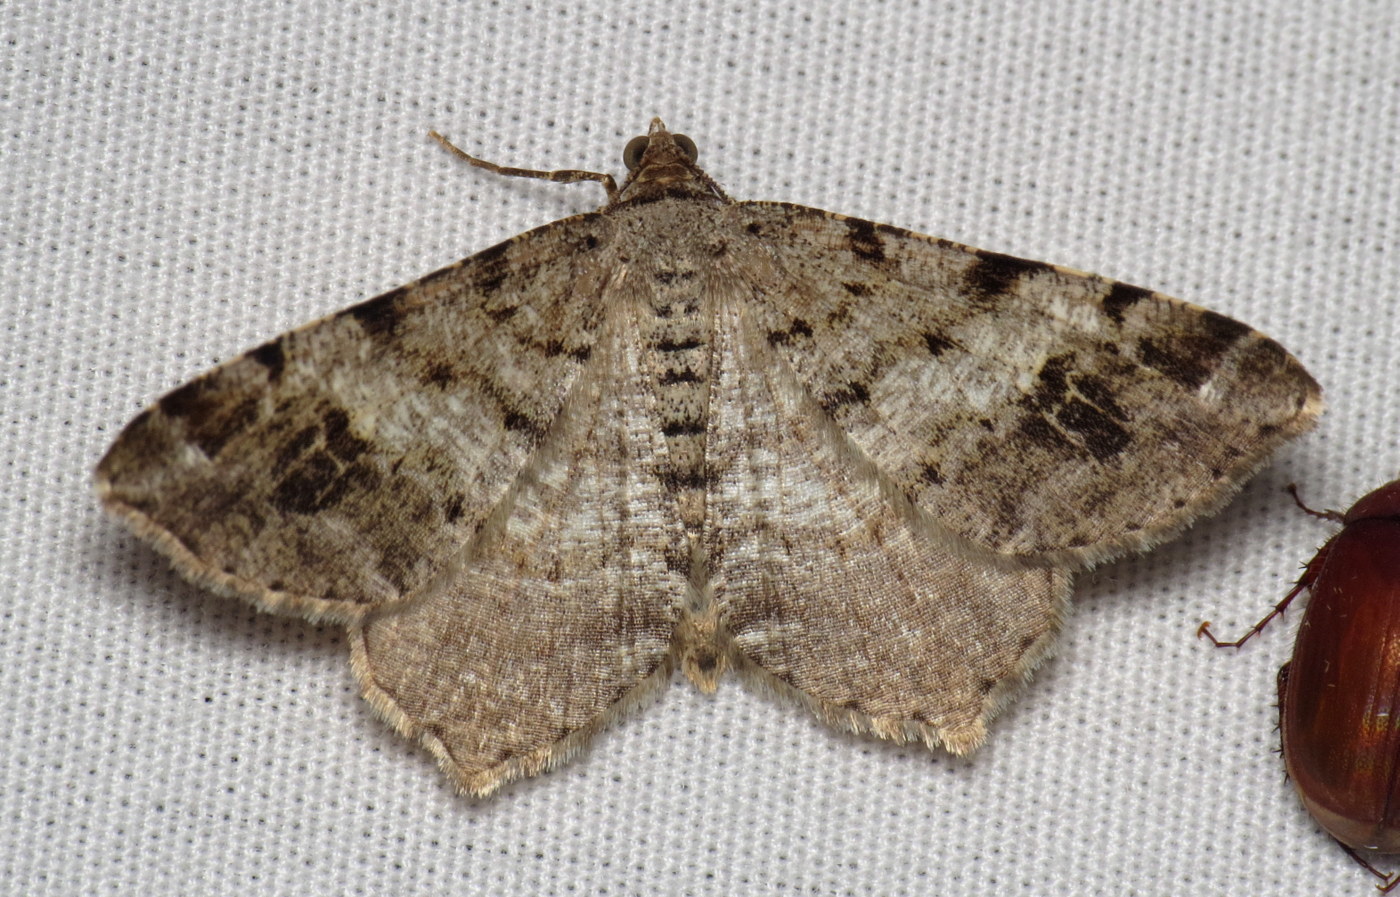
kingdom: Animalia
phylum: Arthropoda
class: Insecta
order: Lepidoptera
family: Geometridae
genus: Macaria
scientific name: Macaria pinistrobata
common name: White pine angle
